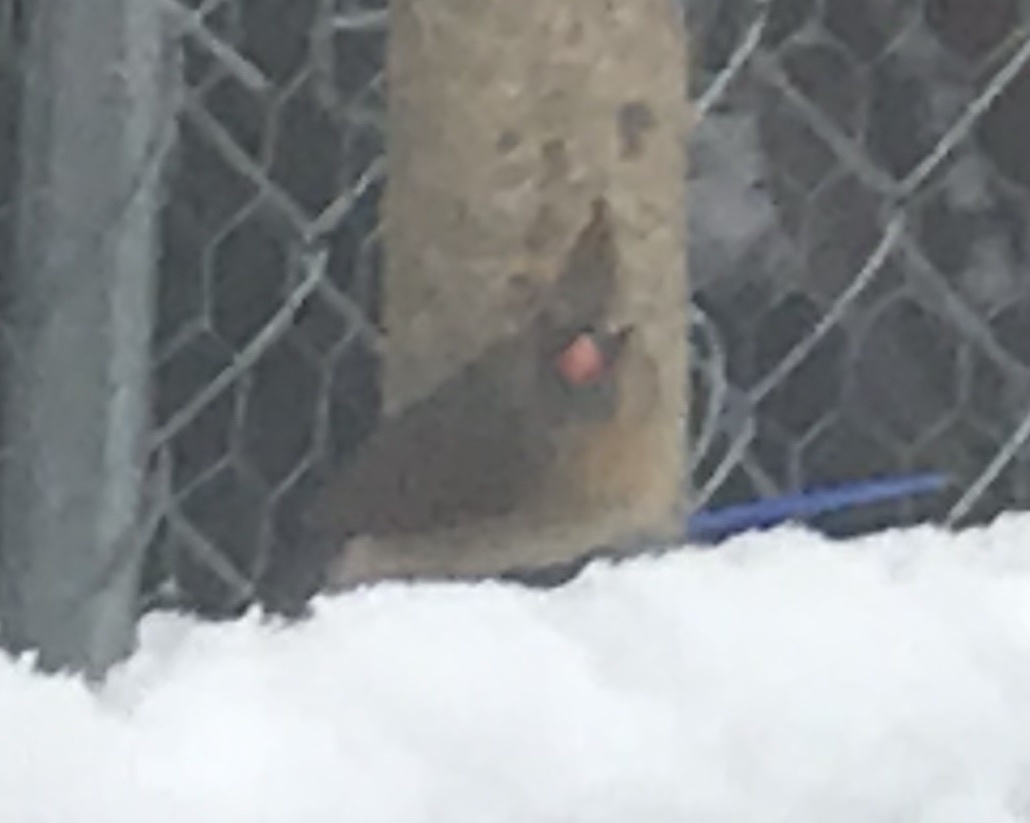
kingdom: Animalia
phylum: Chordata
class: Aves
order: Passeriformes
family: Cardinalidae
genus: Cardinalis
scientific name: Cardinalis cardinalis
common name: Northern cardinal
